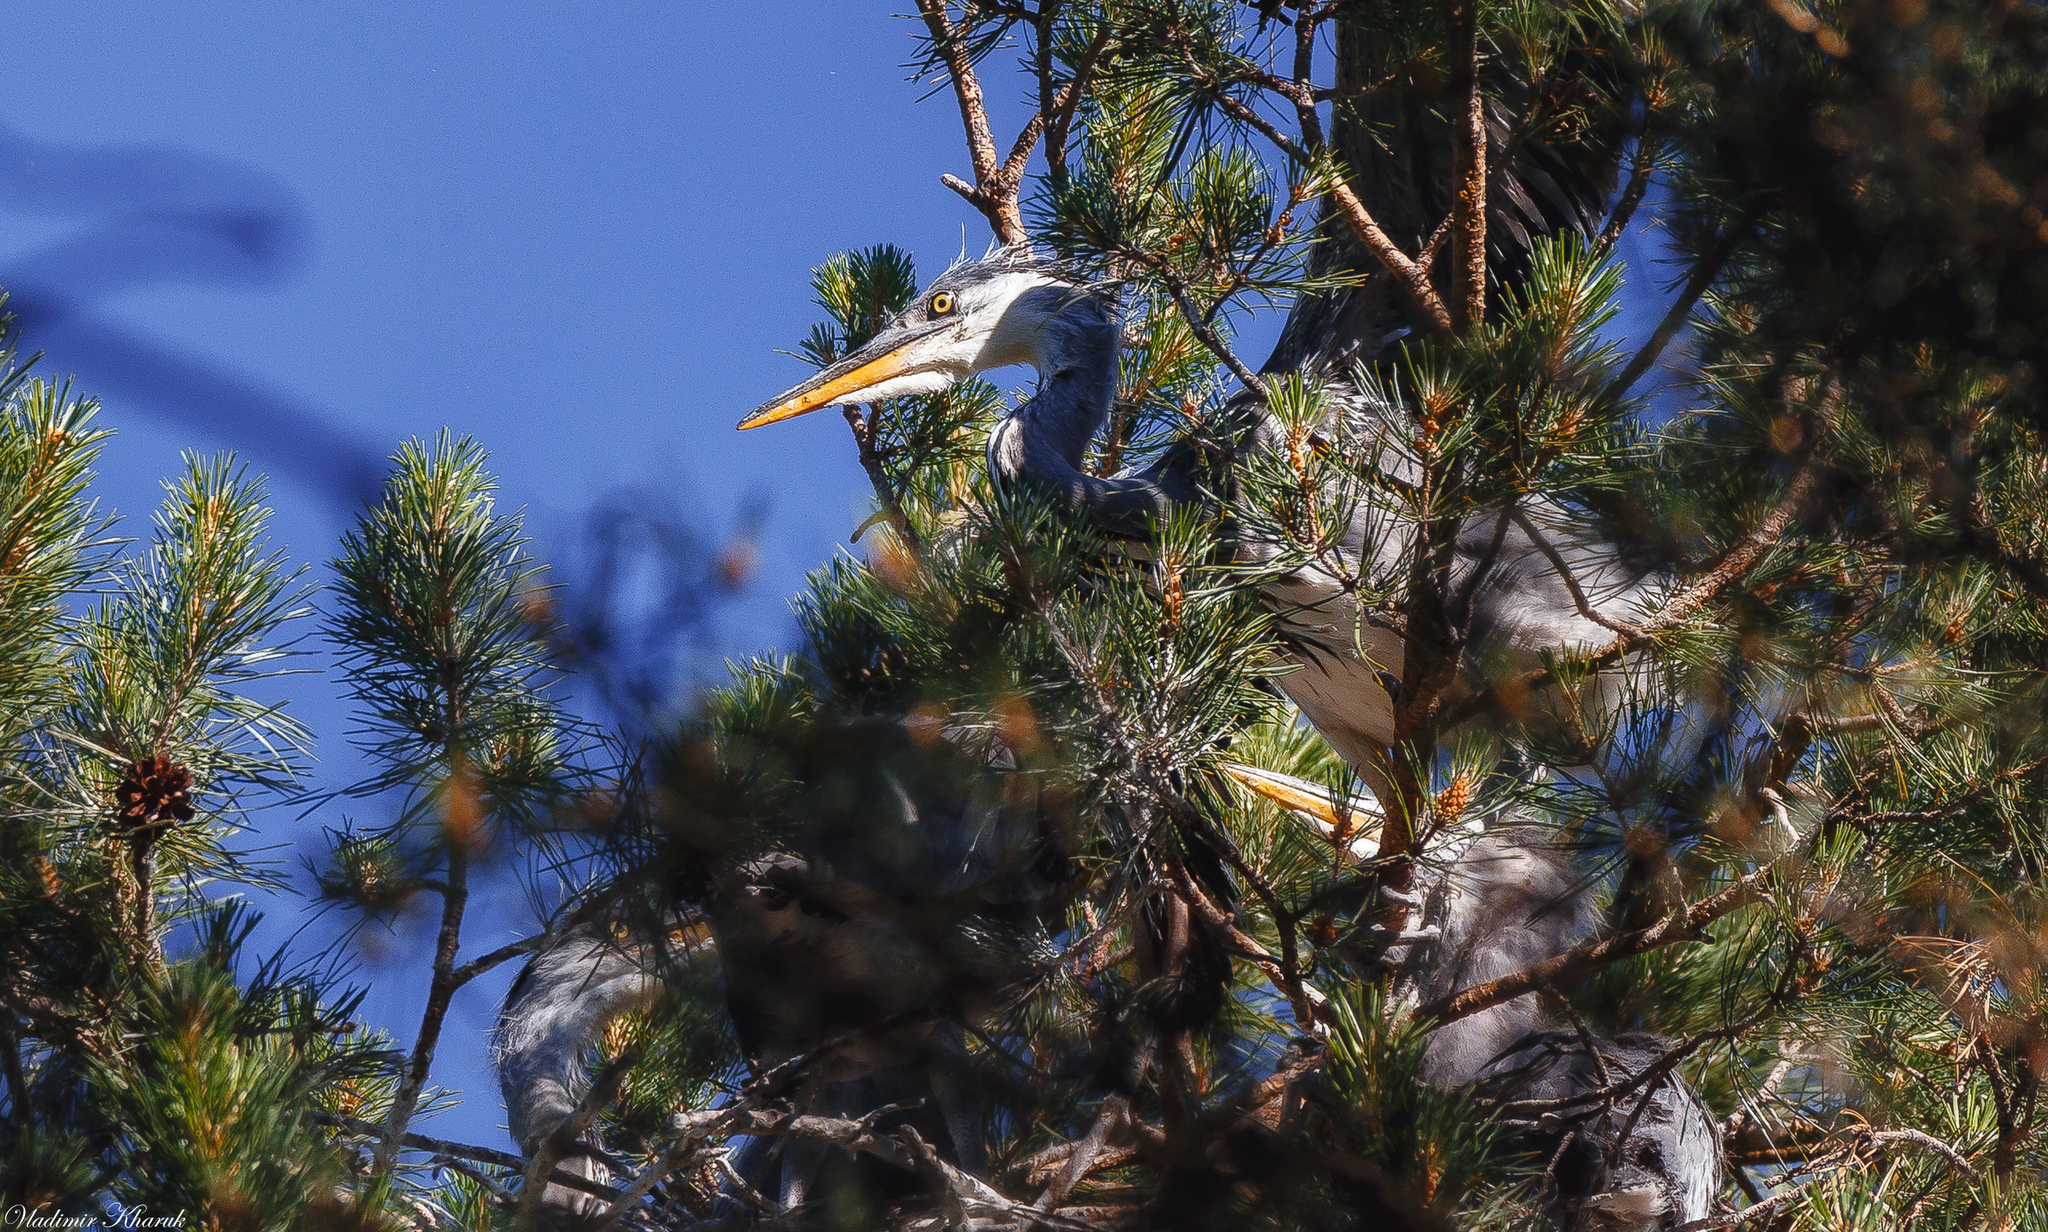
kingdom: Animalia
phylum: Chordata
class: Aves
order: Pelecaniformes
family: Ardeidae
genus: Ardea
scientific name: Ardea cinerea
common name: Grey heron
